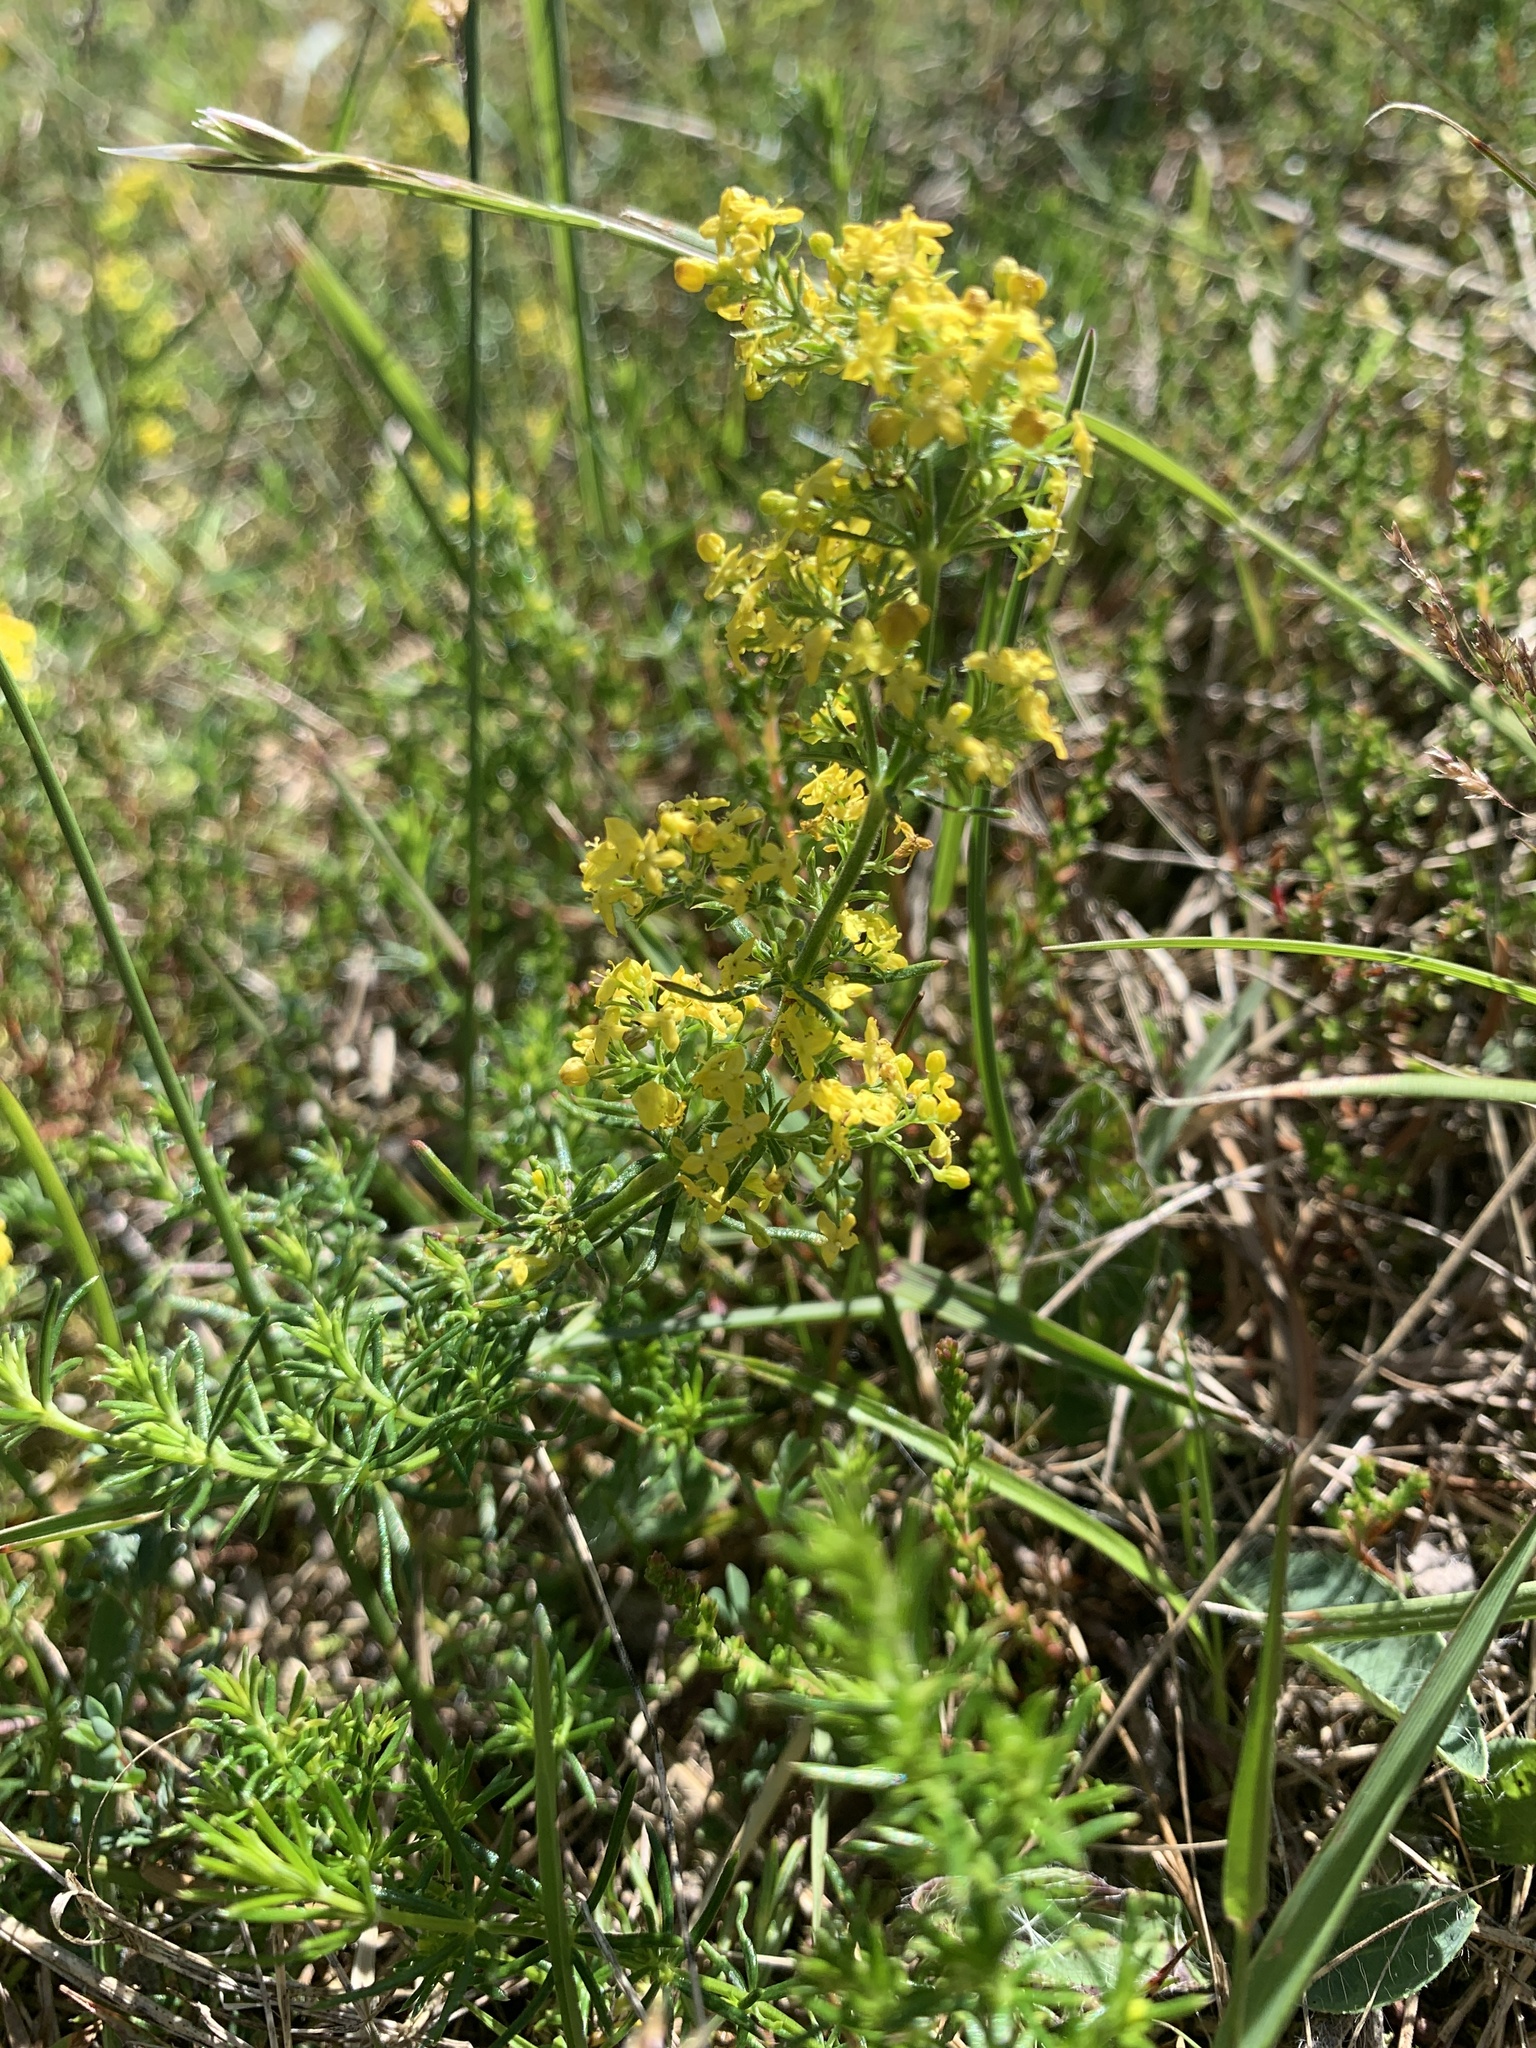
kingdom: Plantae
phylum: Tracheophyta
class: Magnoliopsida
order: Gentianales
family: Rubiaceae
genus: Galium
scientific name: Galium verum
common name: Lady's bedstraw
